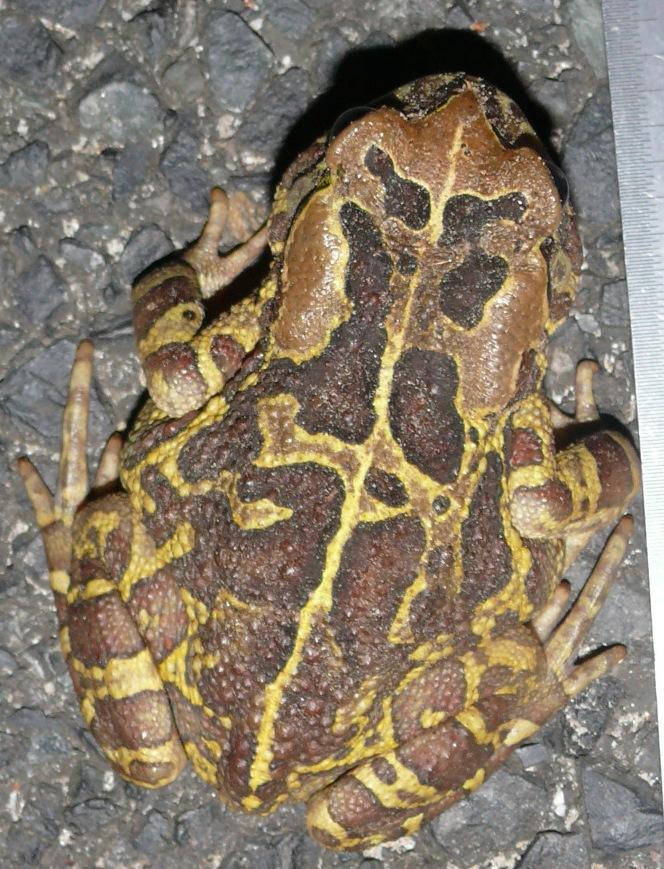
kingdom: Animalia
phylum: Chordata
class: Amphibia
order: Anura
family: Bufonidae
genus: Sclerophrys
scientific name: Sclerophrys pantherina
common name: Panther toad
